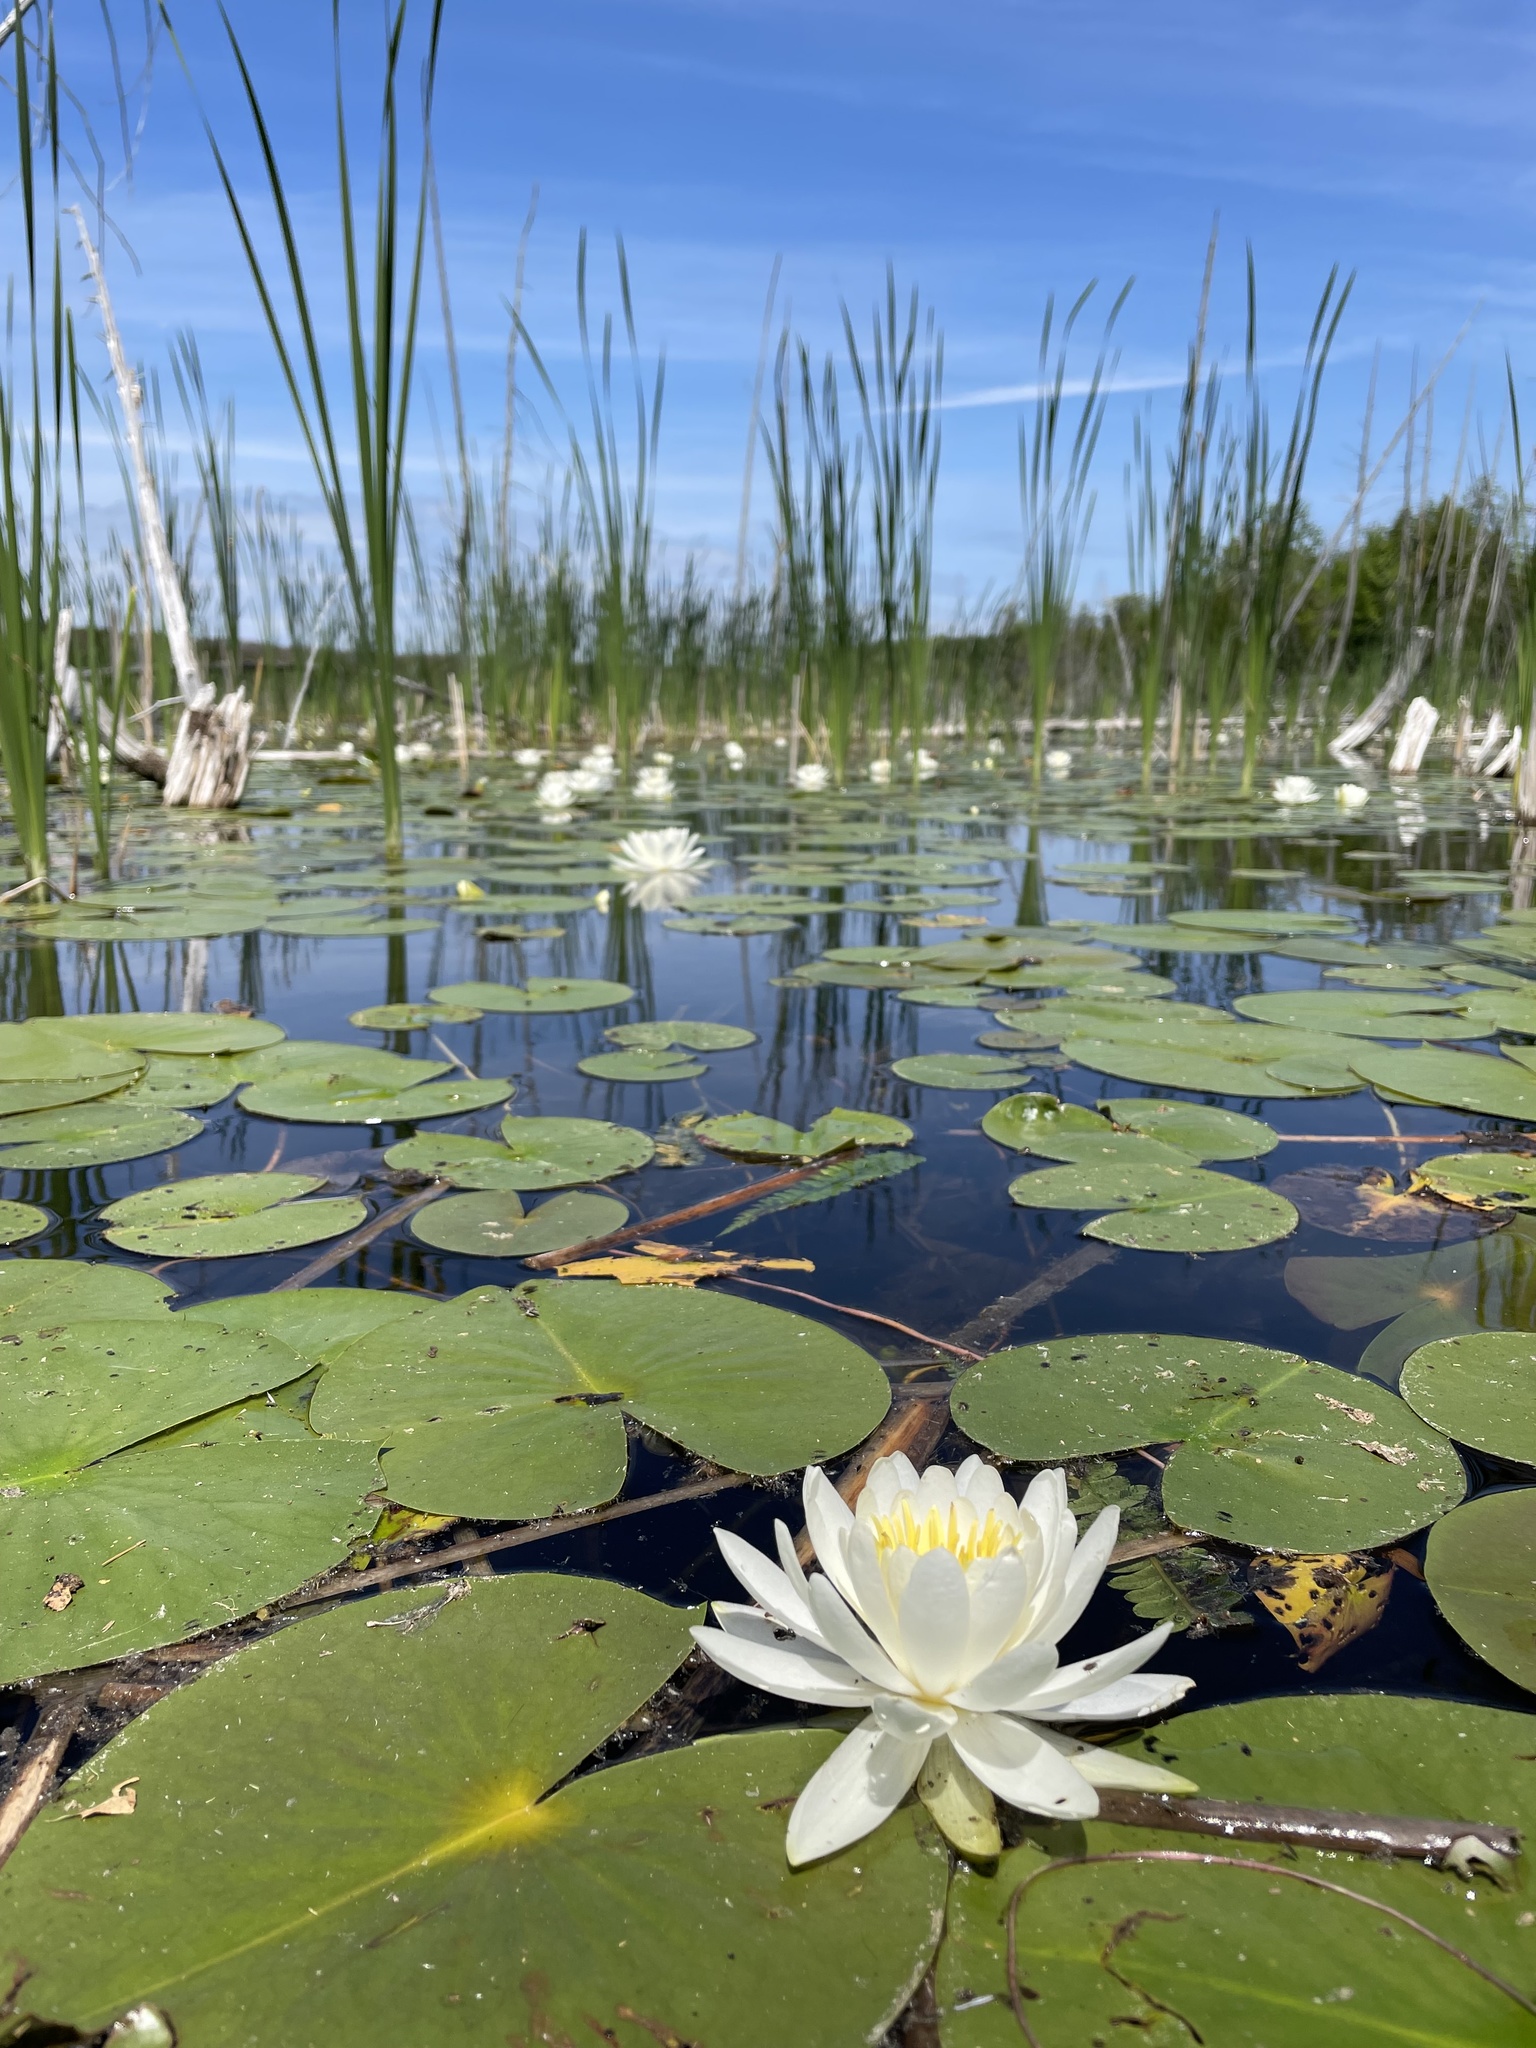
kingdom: Plantae
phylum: Tracheophyta
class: Magnoliopsida
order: Nymphaeales
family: Nymphaeaceae
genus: Nymphaea
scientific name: Nymphaea odorata
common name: Fragrant water-lily
